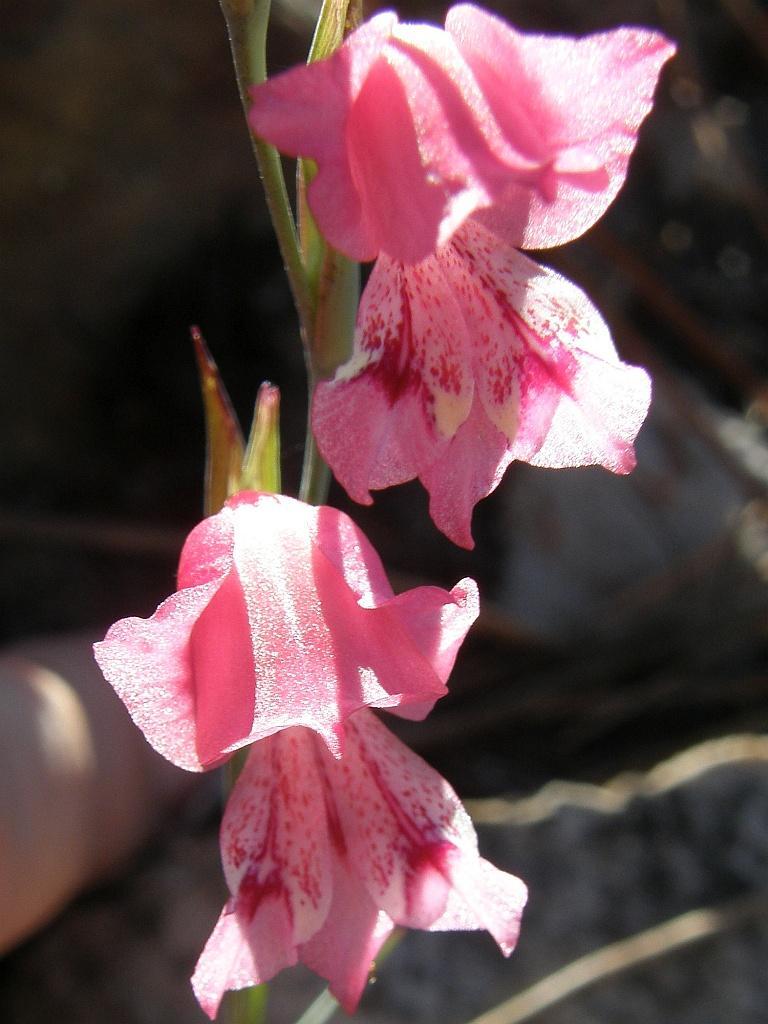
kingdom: Plantae
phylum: Tracheophyta
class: Liliopsida
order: Asparagales
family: Iridaceae
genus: Gladiolus
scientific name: Gladiolus brevifolius
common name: March pypie
